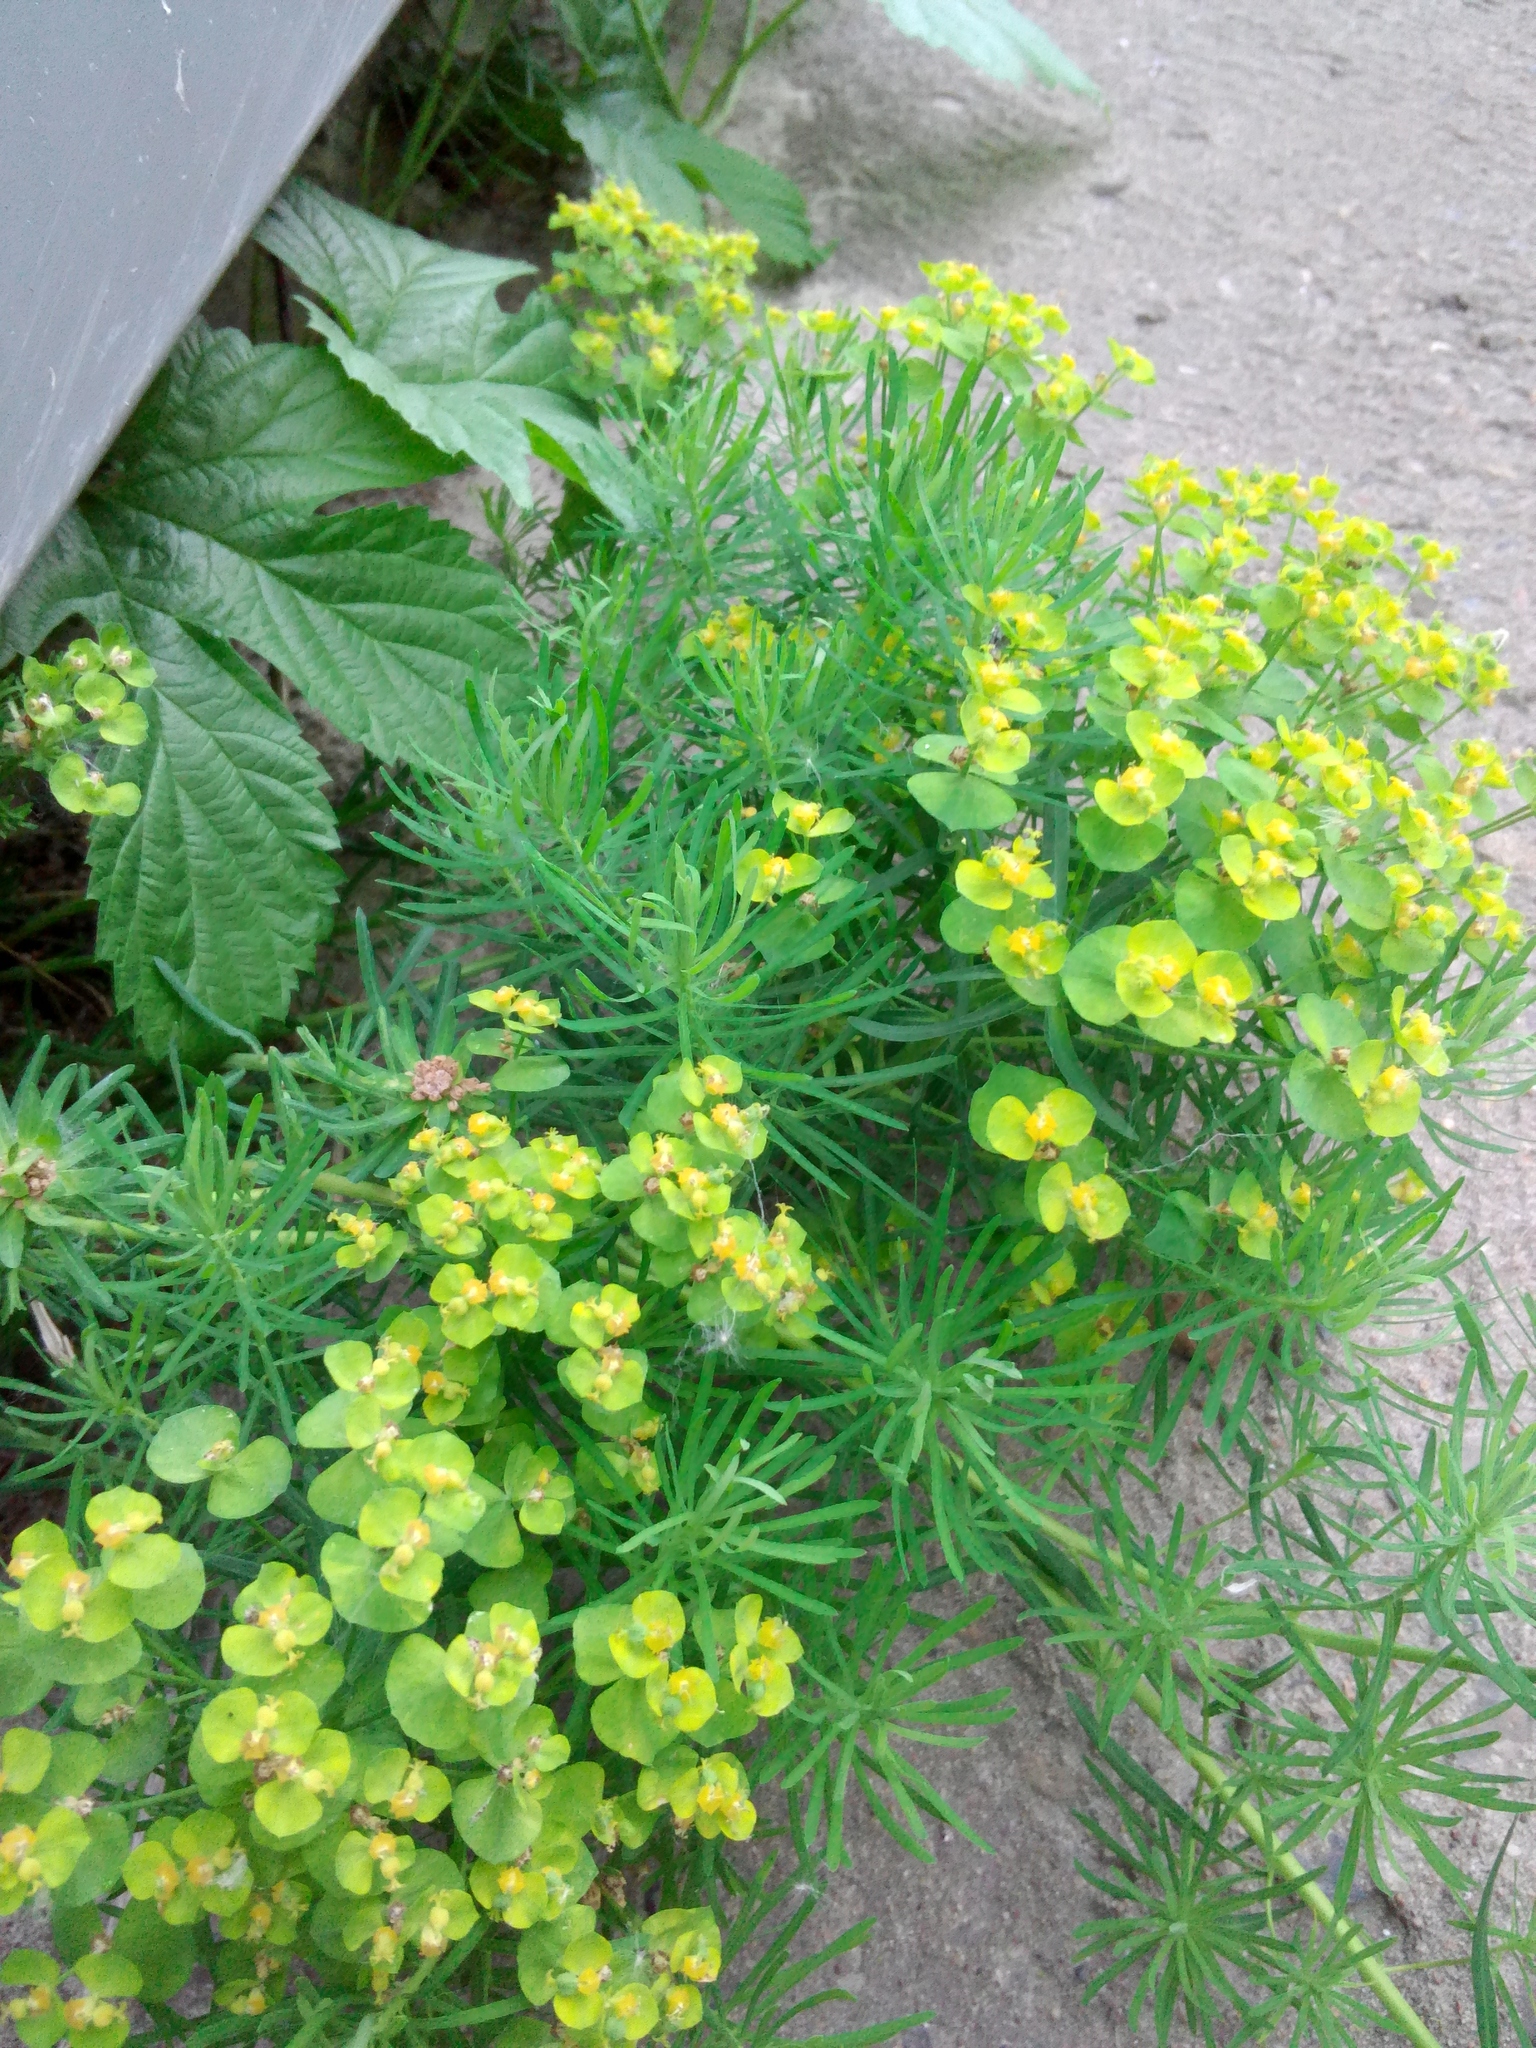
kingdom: Plantae
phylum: Tracheophyta
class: Magnoliopsida
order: Malpighiales
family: Euphorbiaceae
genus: Euphorbia
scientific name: Euphorbia cyparissias
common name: Cypress spurge
